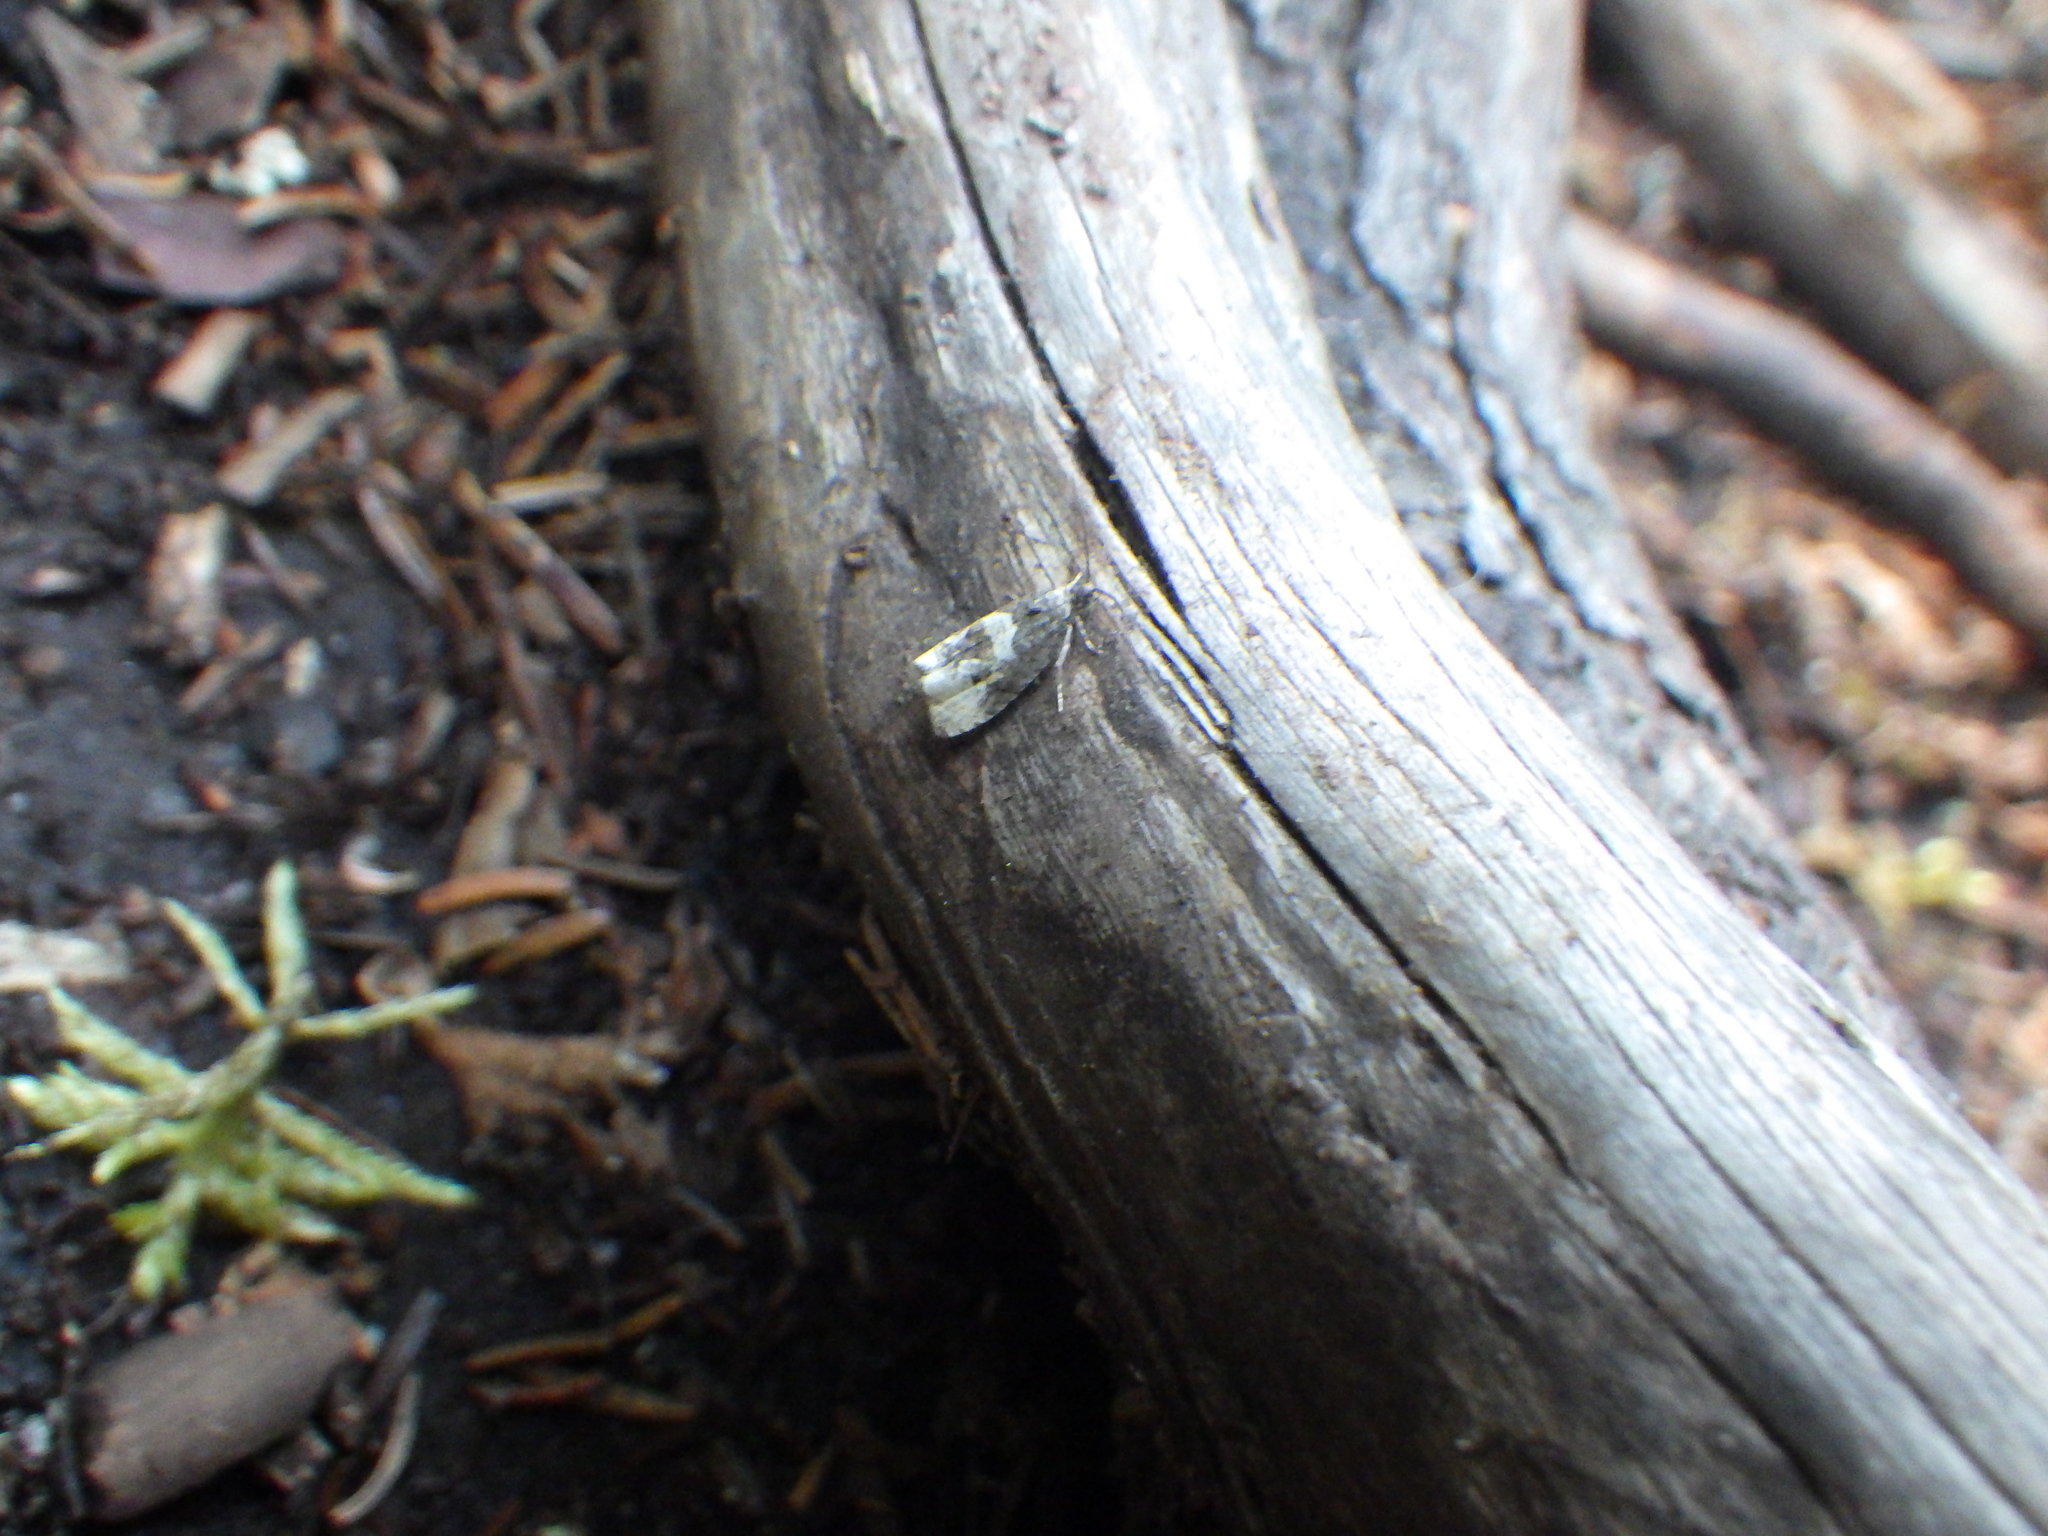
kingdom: Animalia
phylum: Arthropoda
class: Insecta
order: Lepidoptera
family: Tortricidae
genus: Eucosma
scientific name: Eucosma parmatana
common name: Aster eucosma moth
